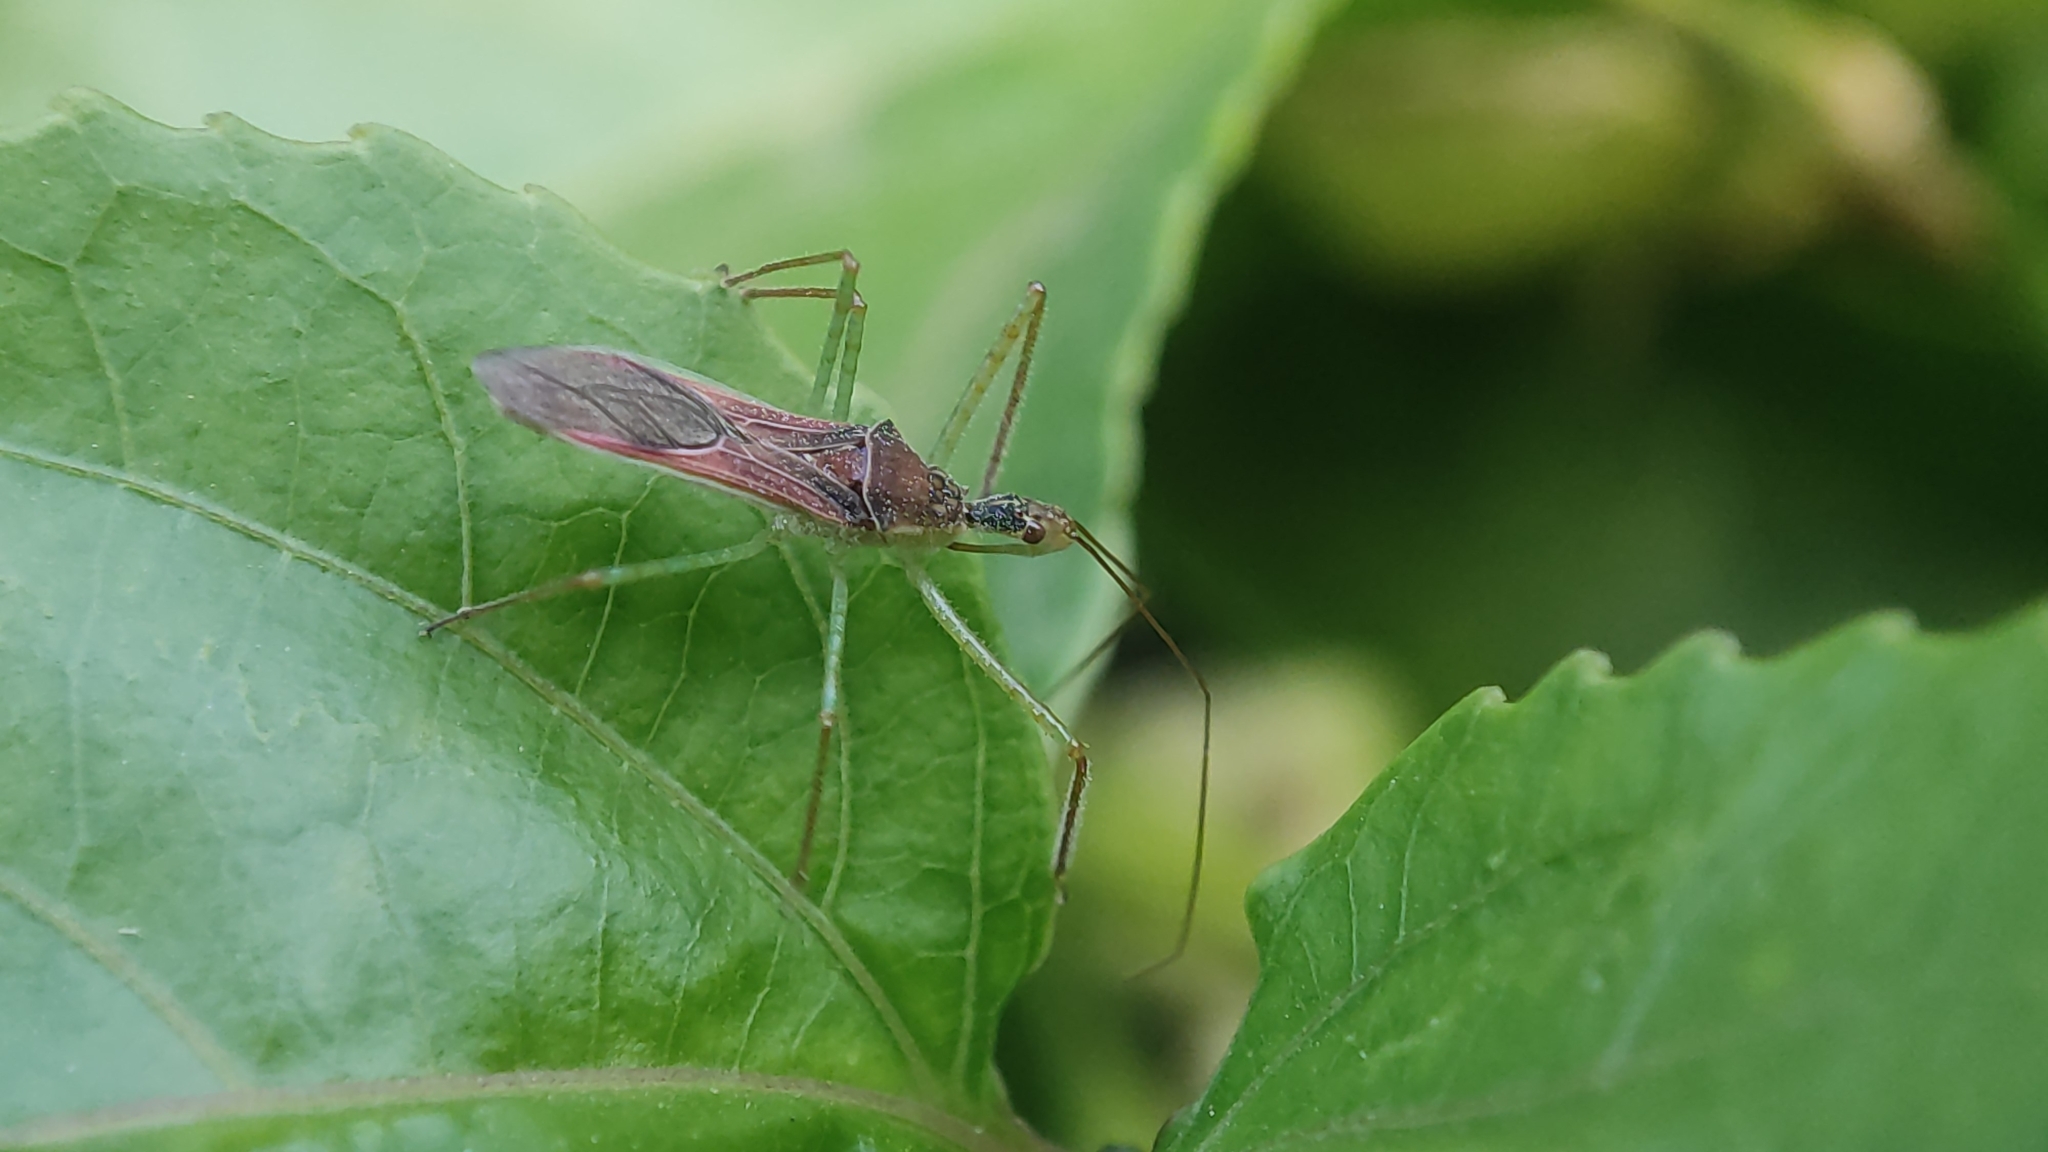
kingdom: Animalia
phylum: Arthropoda
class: Insecta
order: Hemiptera
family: Reduviidae
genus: Zelus
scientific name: Zelus renardii
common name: Assassin bug
